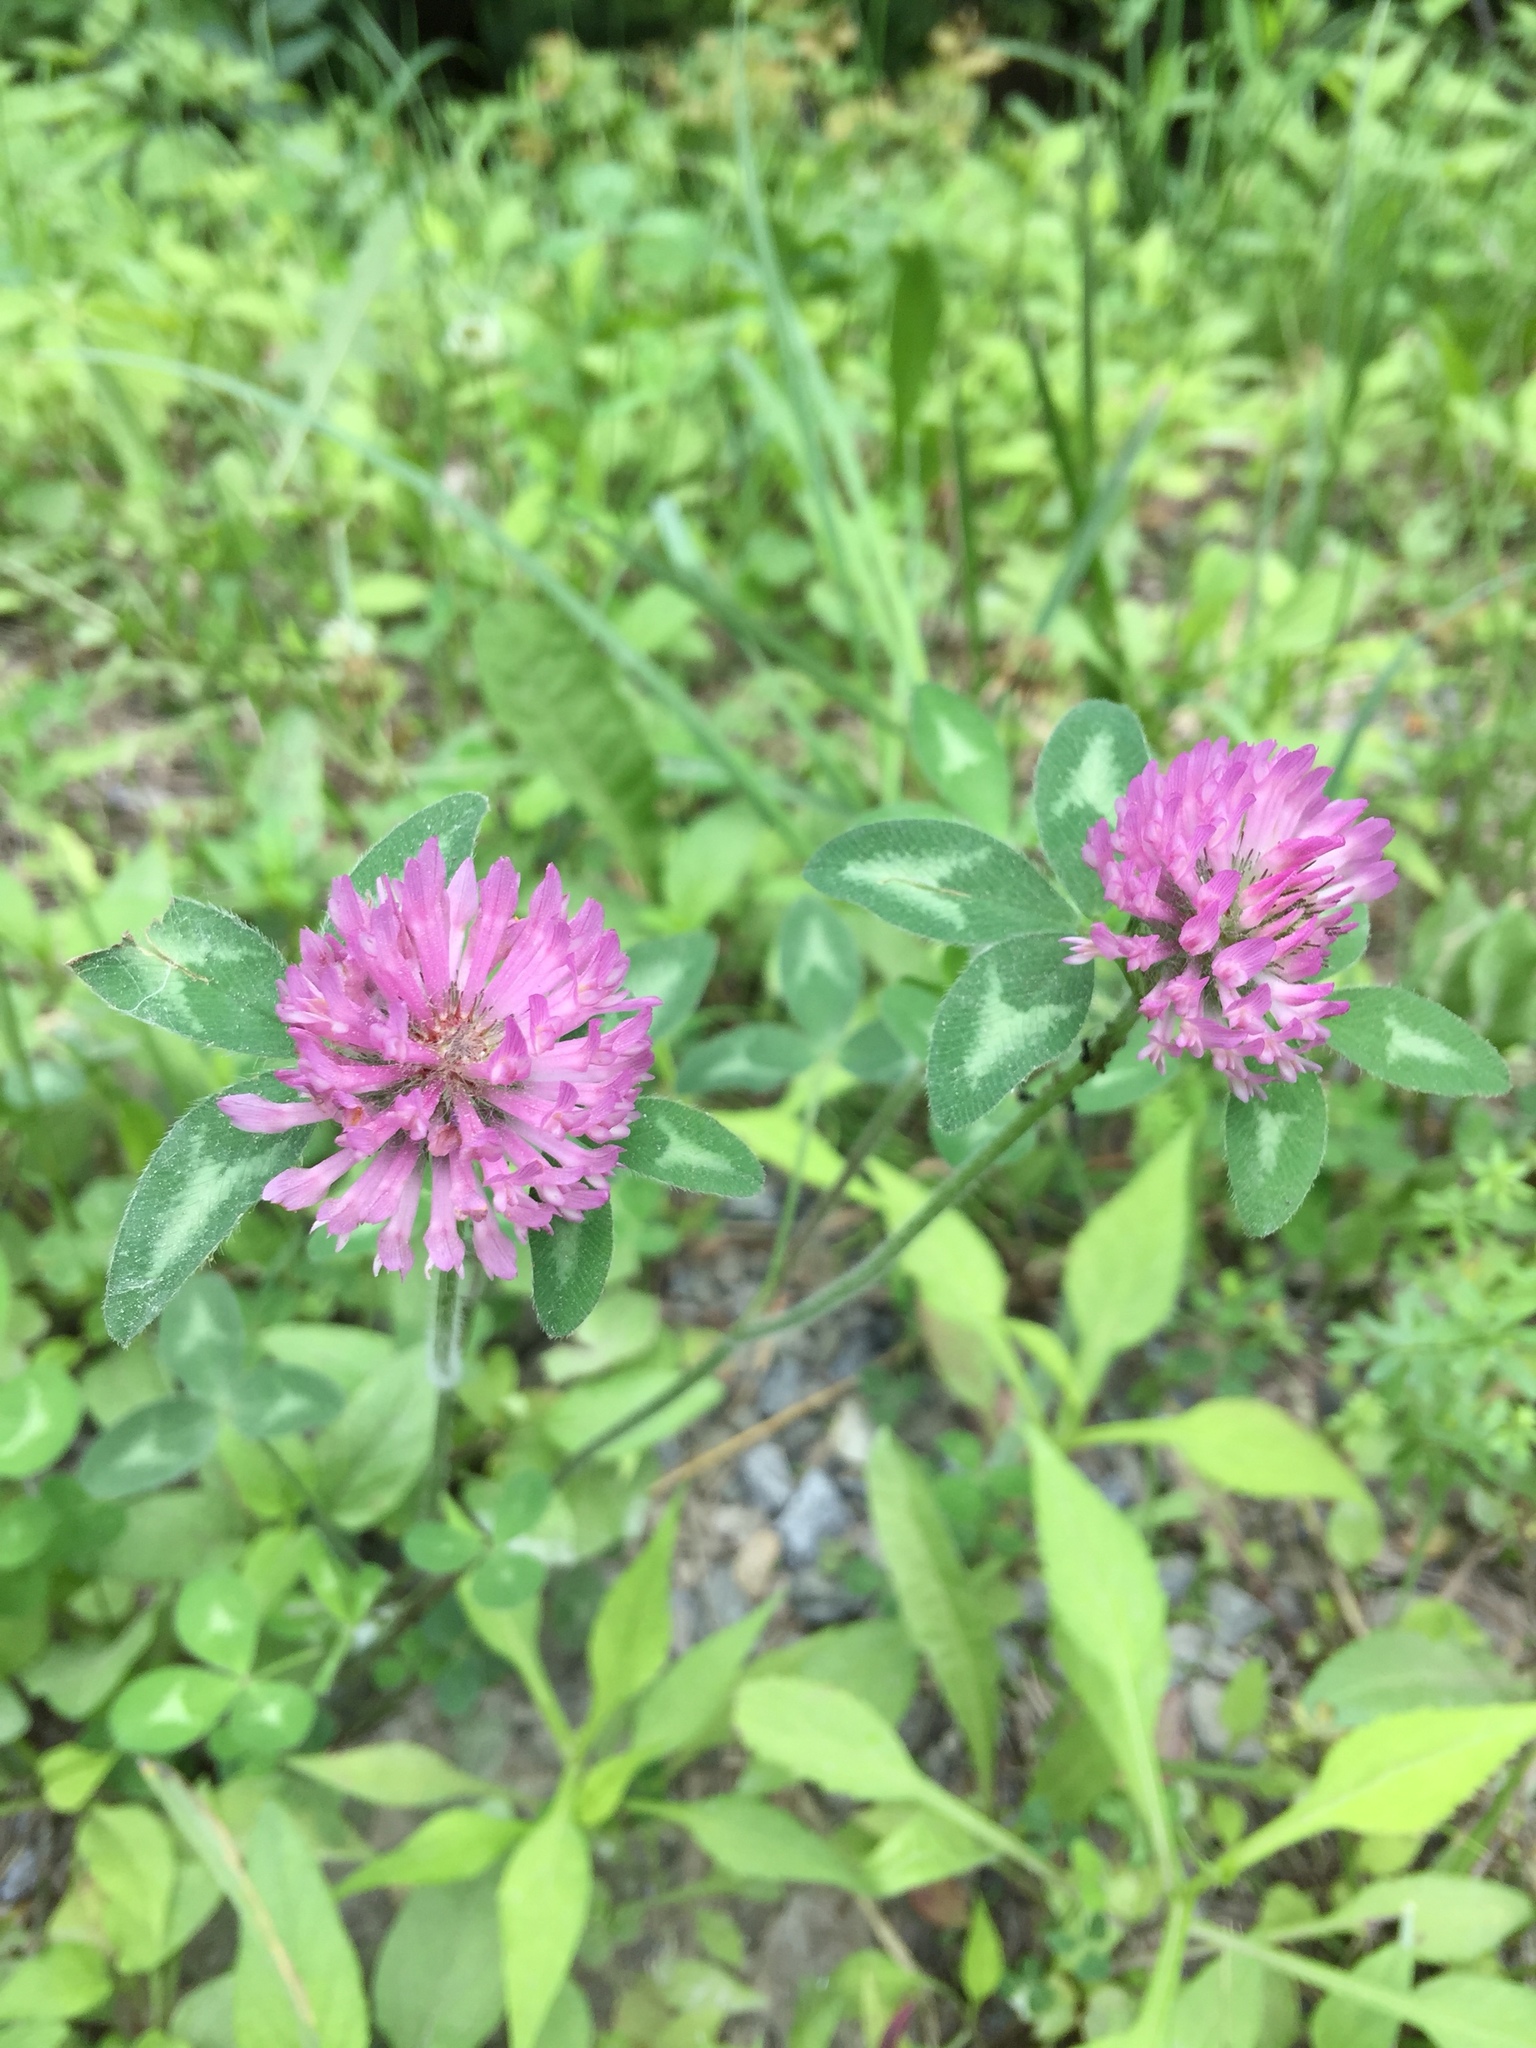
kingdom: Plantae
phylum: Tracheophyta
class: Magnoliopsida
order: Fabales
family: Fabaceae
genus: Trifolium
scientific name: Trifolium pratense
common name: Red clover
